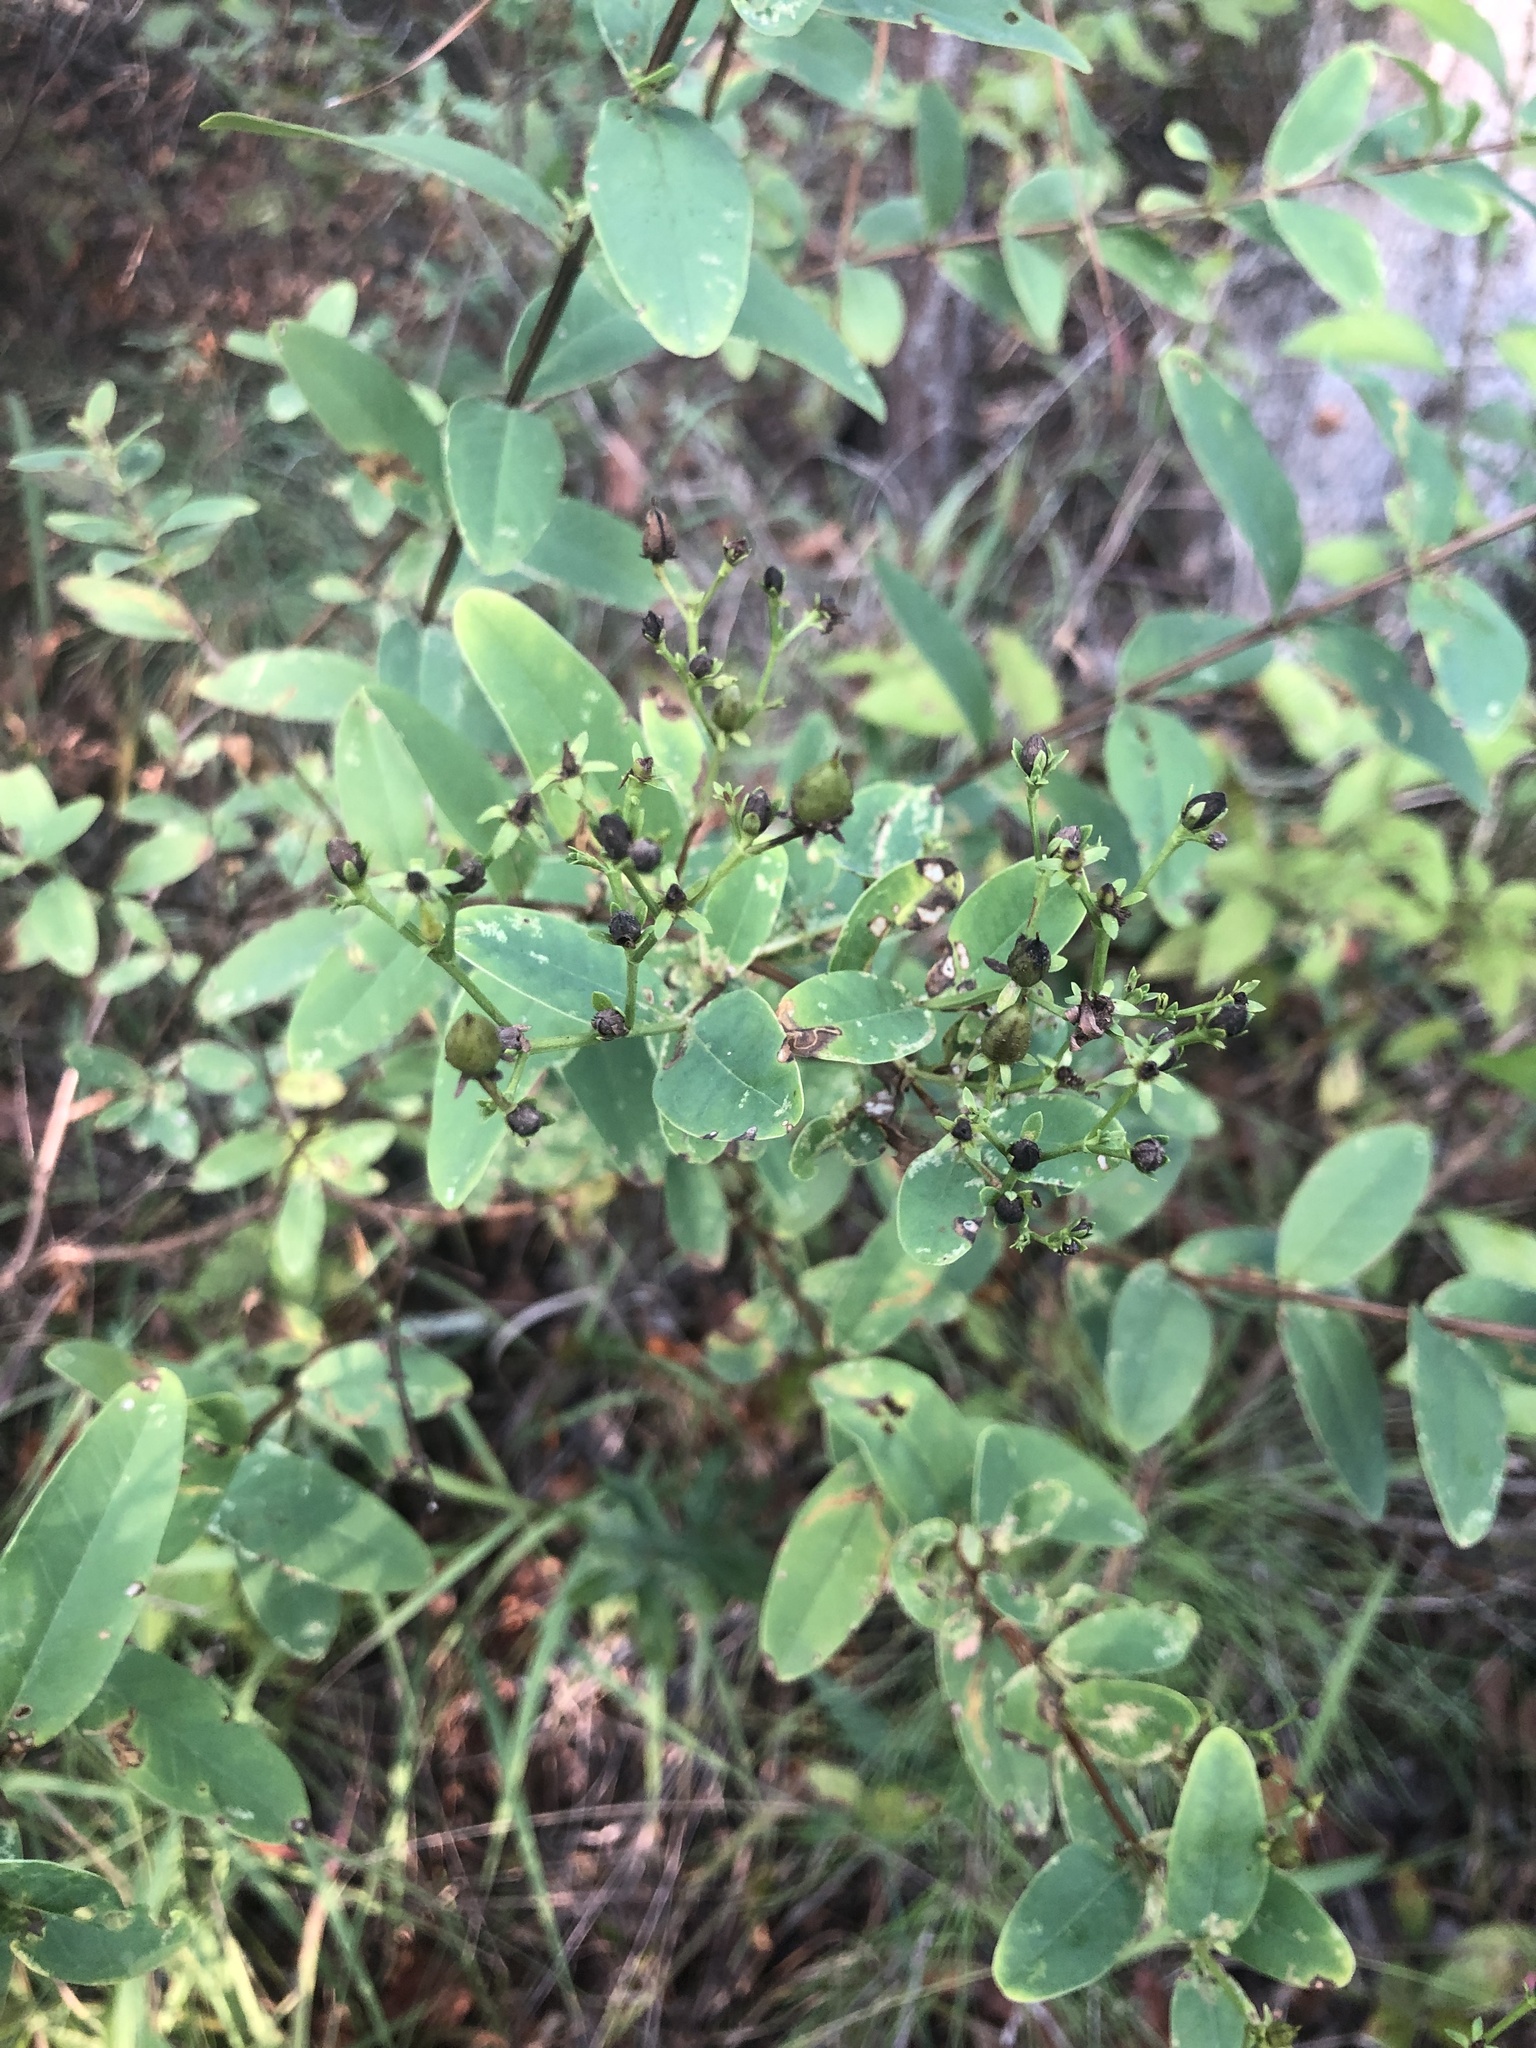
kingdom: Plantae
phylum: Tracheophyta
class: Magnoliopsida
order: Malpighiales
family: Hypericaceae
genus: Hypericum
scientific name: Hypericum nudiflorum
